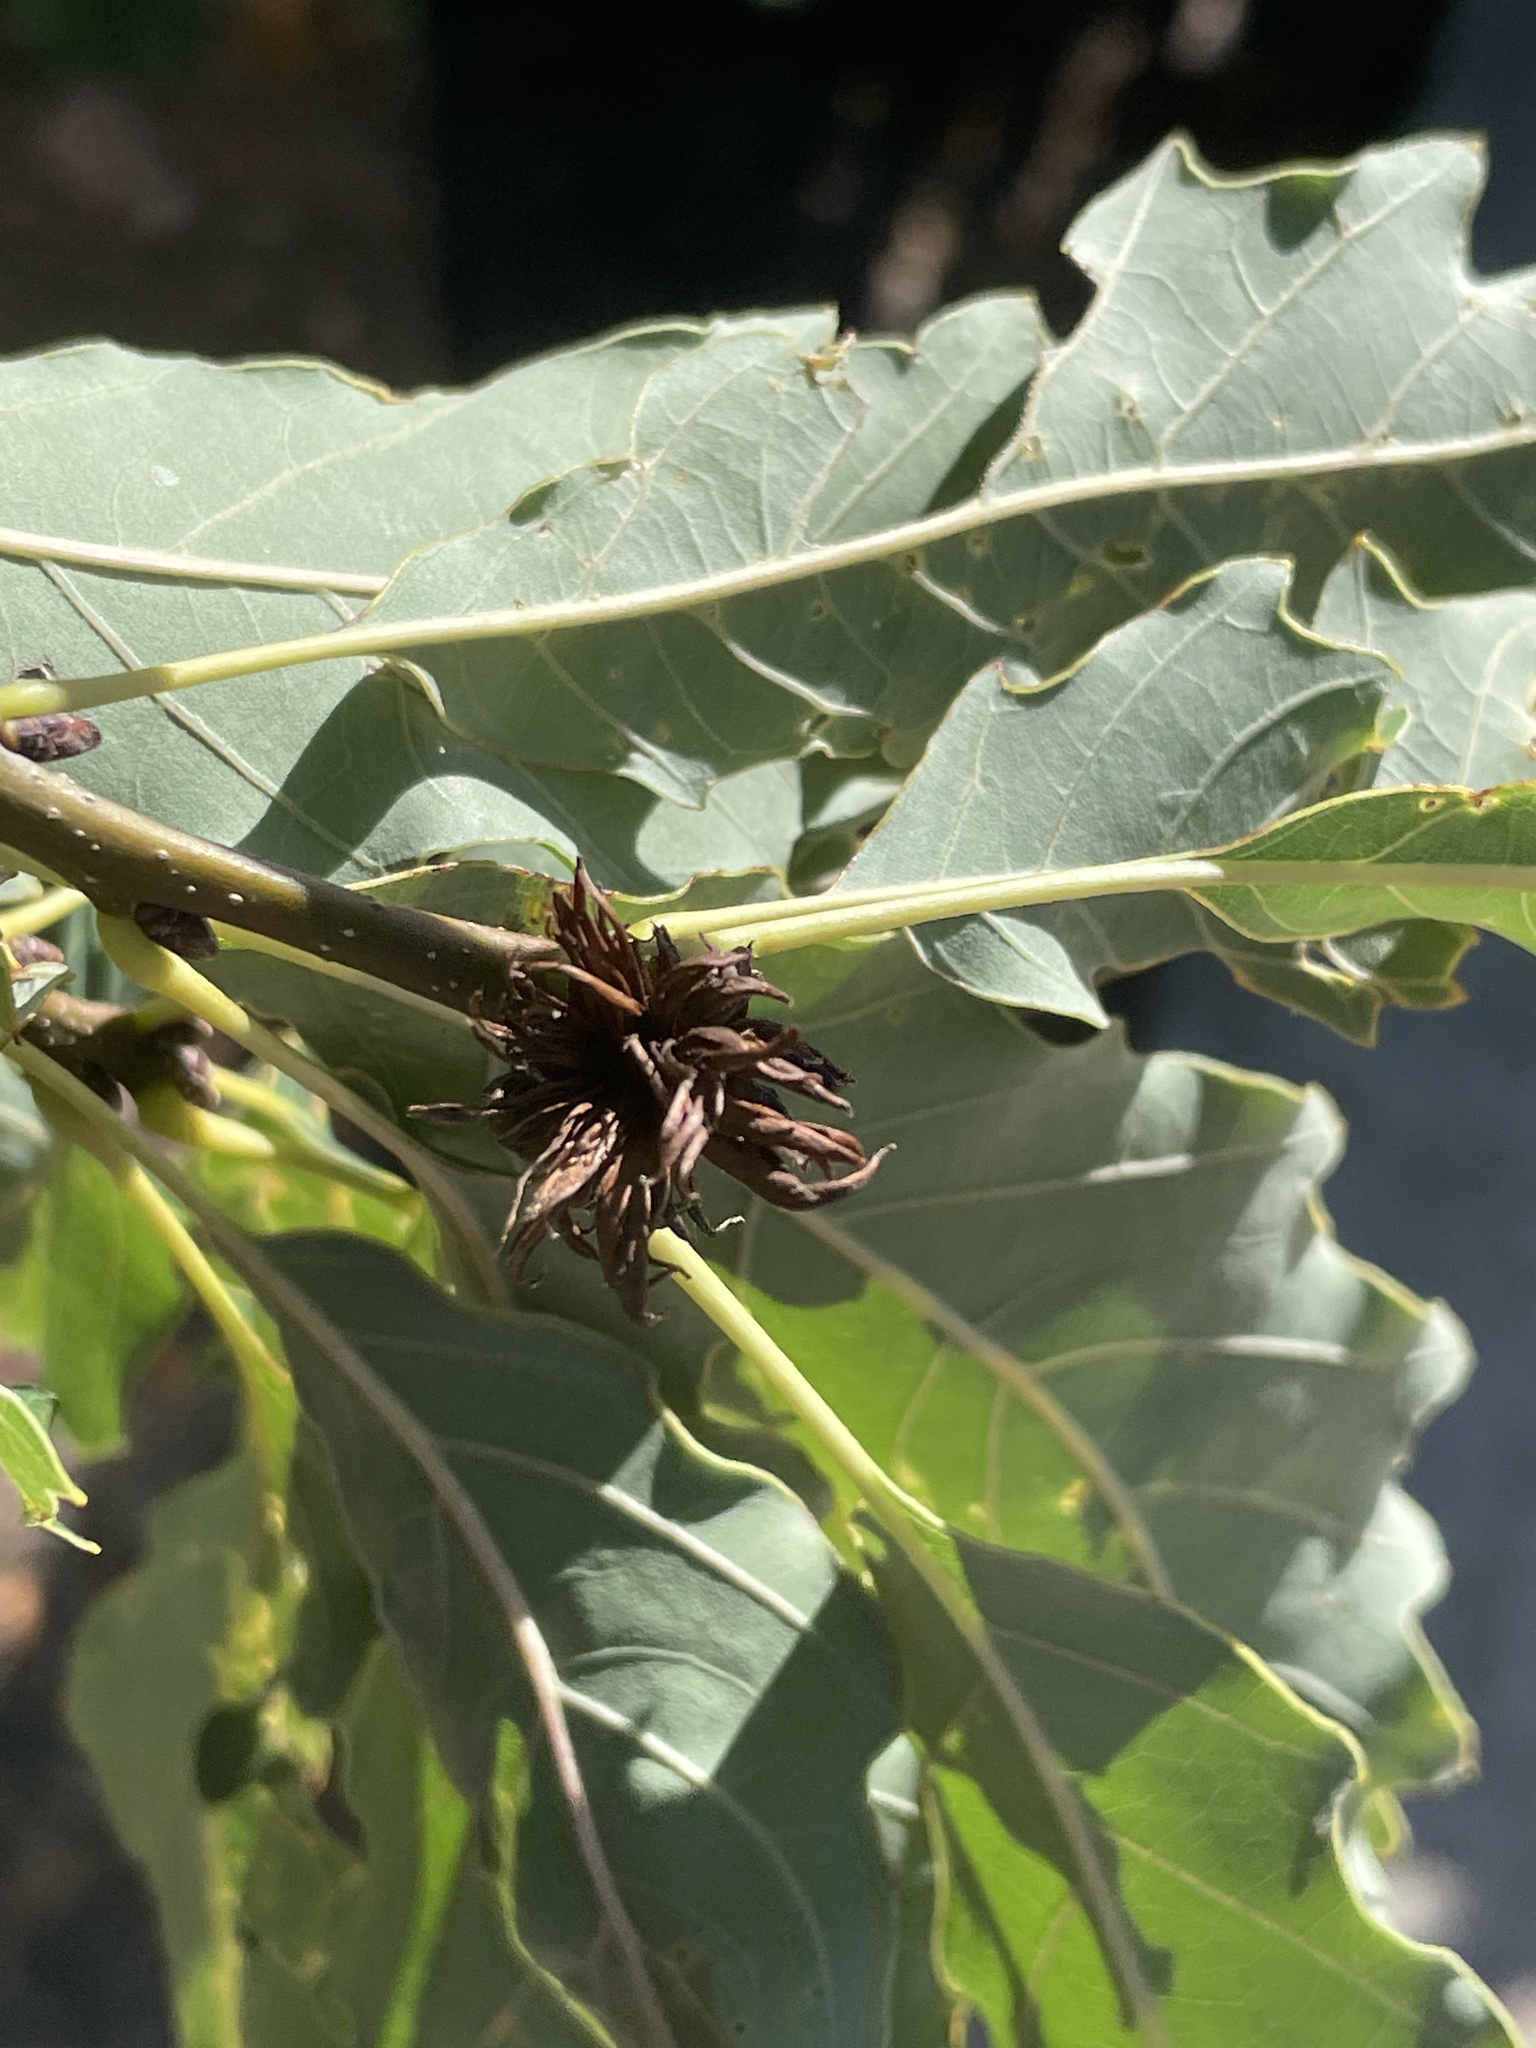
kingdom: Animalia
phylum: Arthropoda
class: Insecta
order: Hymenoptera
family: Cynipidae
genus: Andricus
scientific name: Andricus
